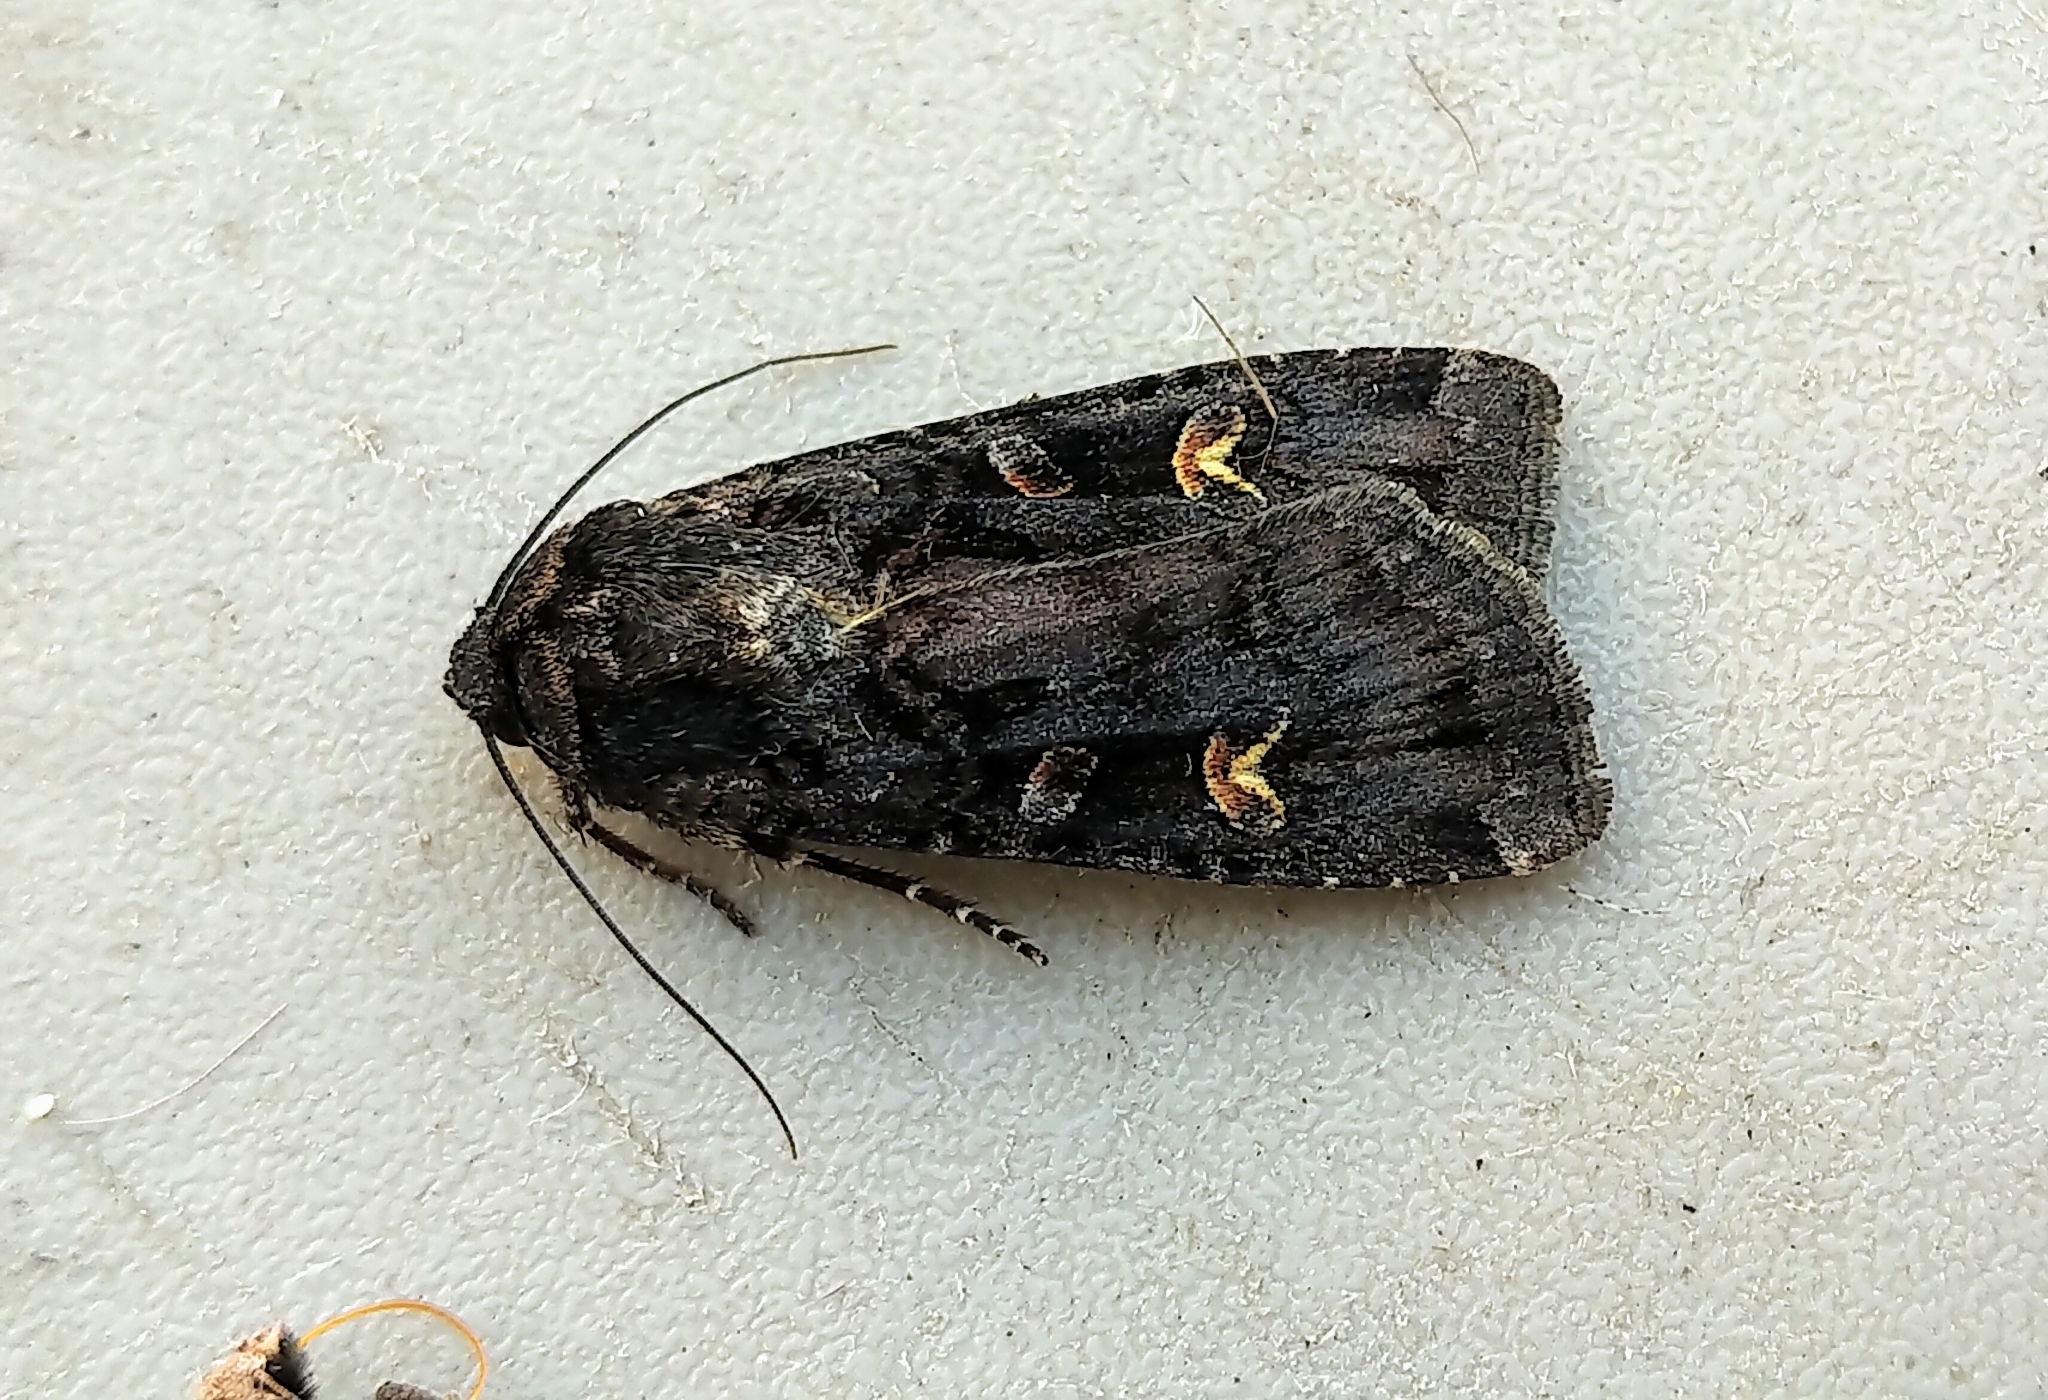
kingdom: Animalia
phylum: Arthropoda
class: Insecta
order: Lepidoptera
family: Noctuidae
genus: Actebia
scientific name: Actebia fennica
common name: Eversmann's rustic
